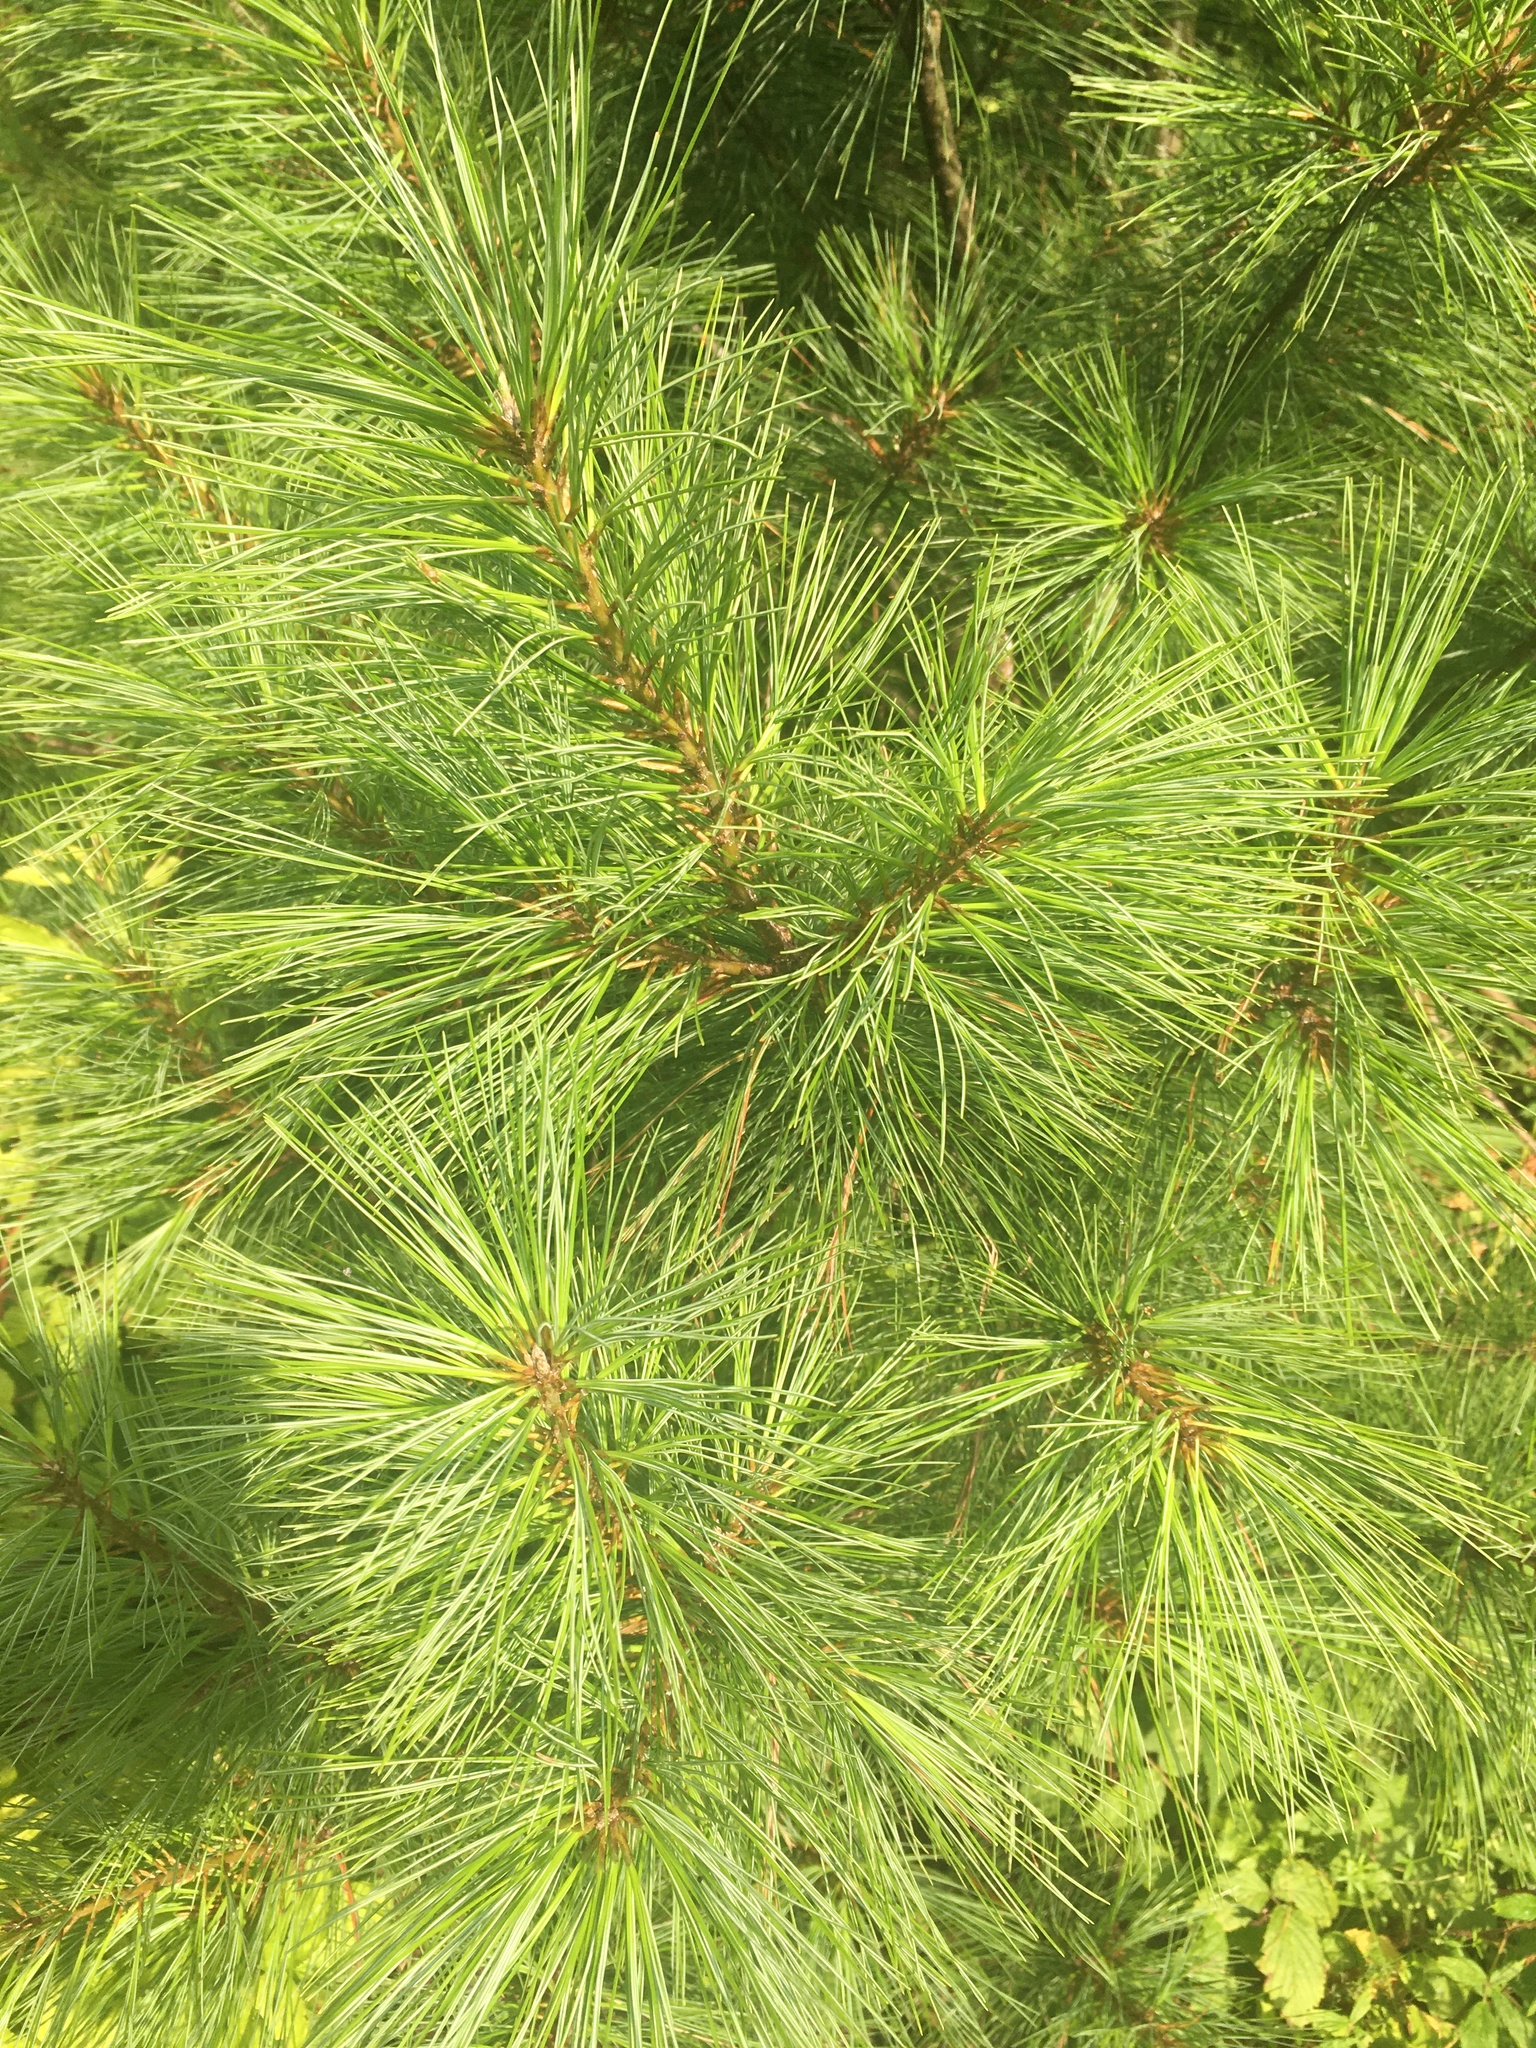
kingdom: Plantae
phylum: Tracheophyta
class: Pinopsida
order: Pinales
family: Pinaceae
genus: Pinus
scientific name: Pinus strobus
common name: Weymouth pine
